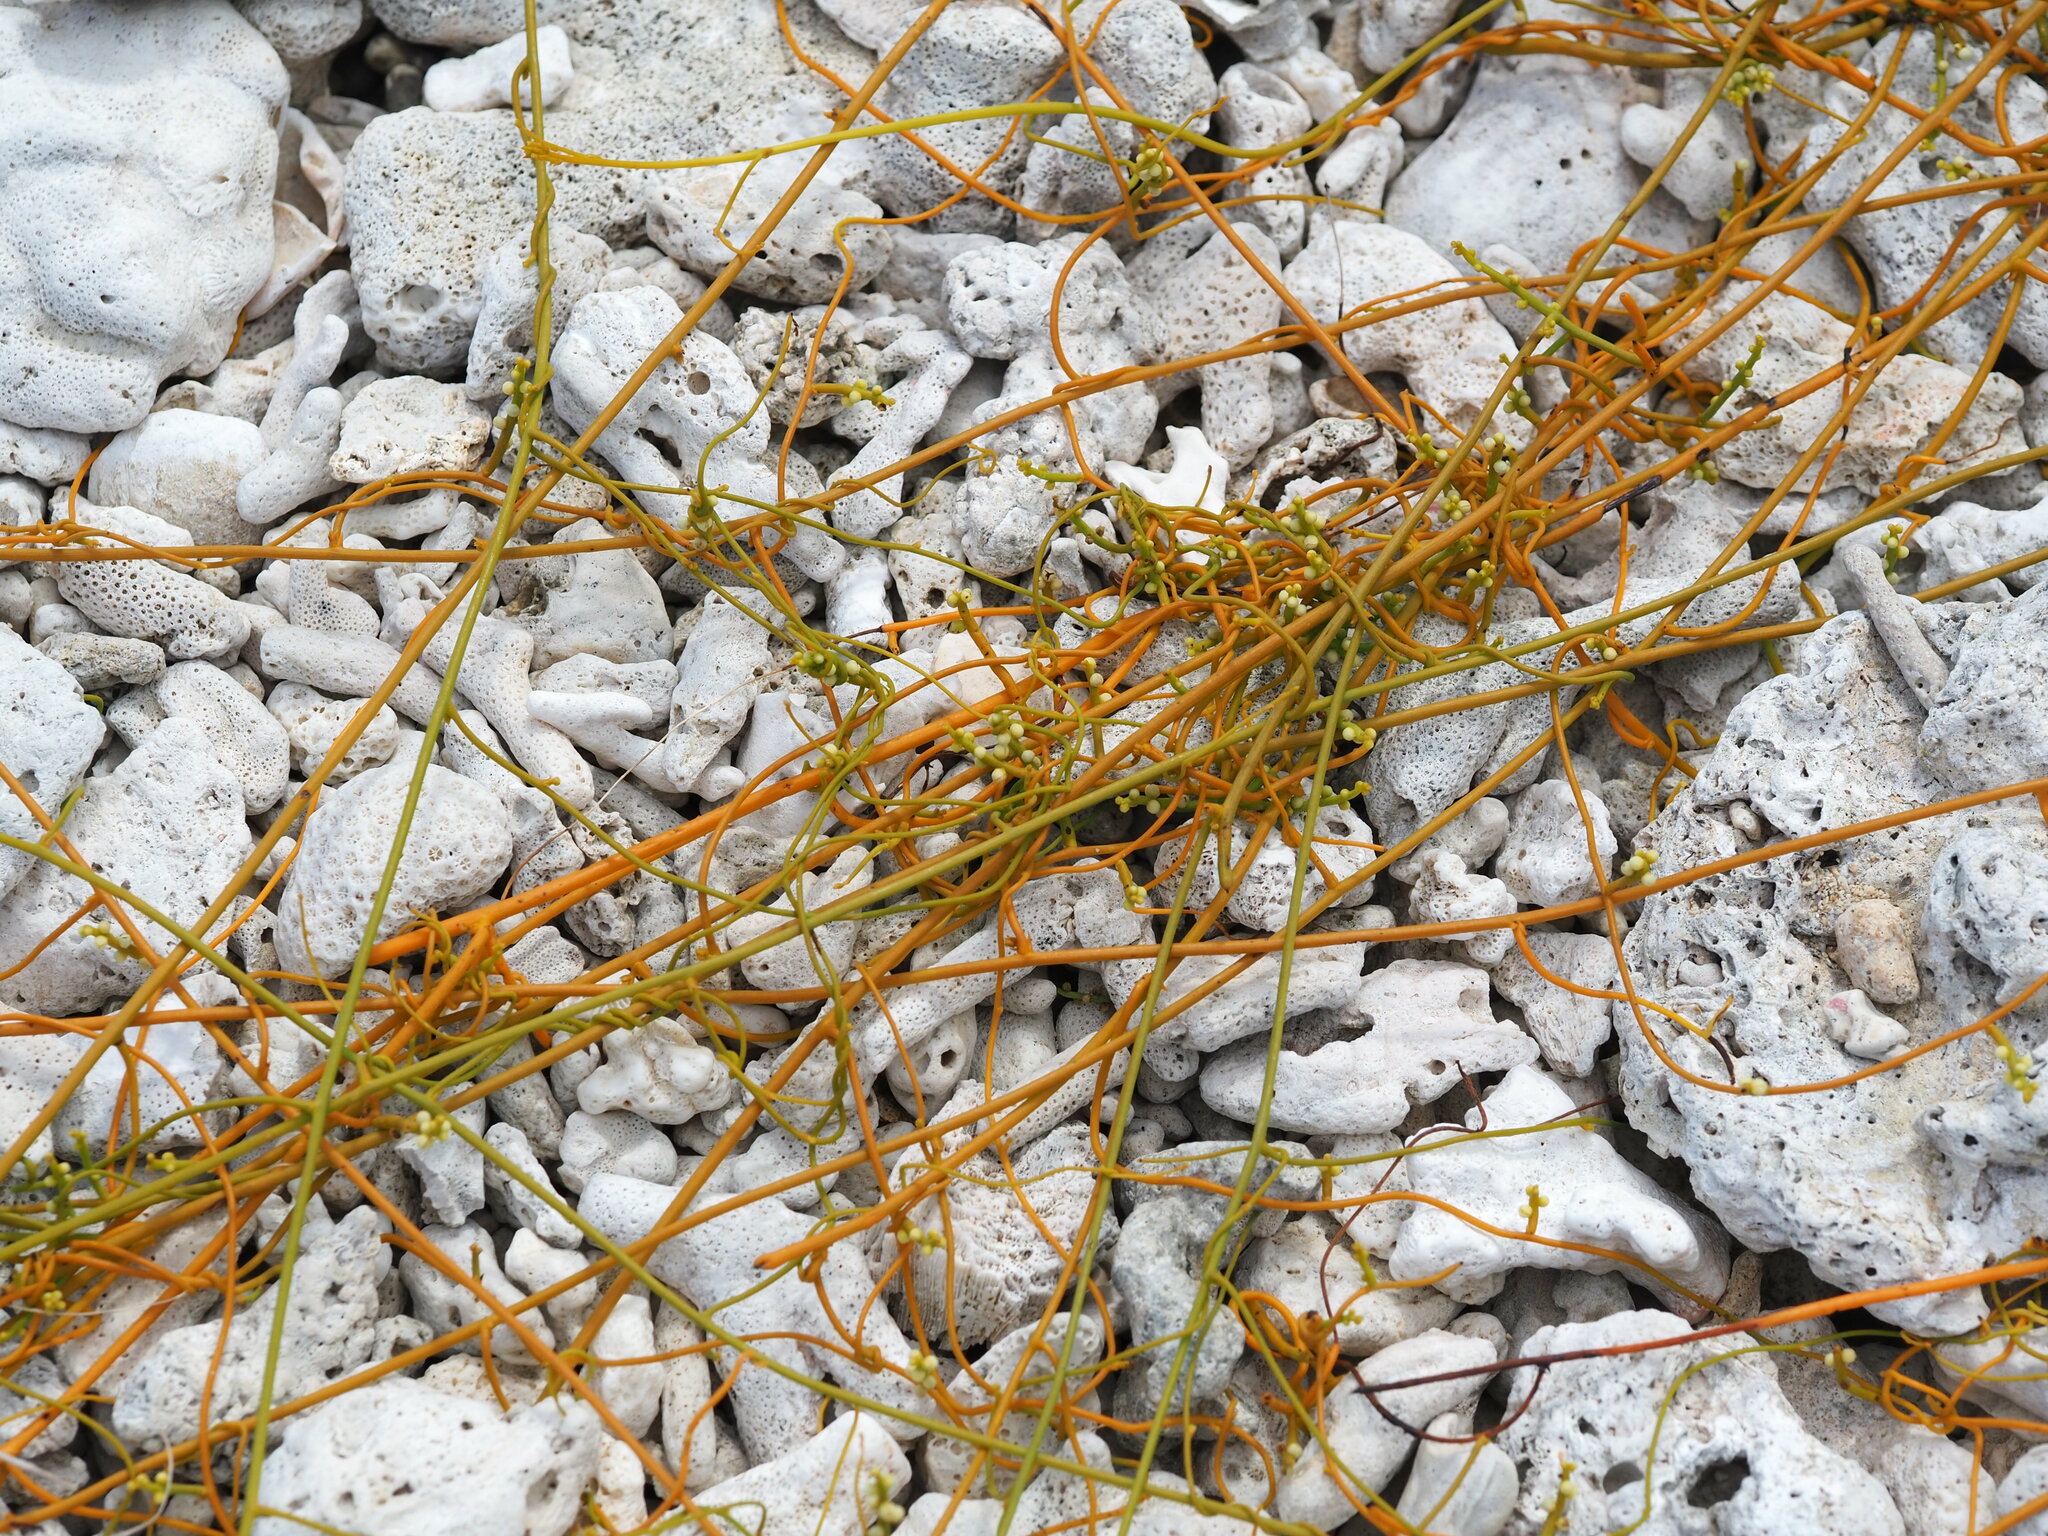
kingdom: Plantae
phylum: Tracheophyta
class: Magnoliopsida
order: Laurales
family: Lauraceae
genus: Cassytha
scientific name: Cassytha filiformis
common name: Dodder-laurel
